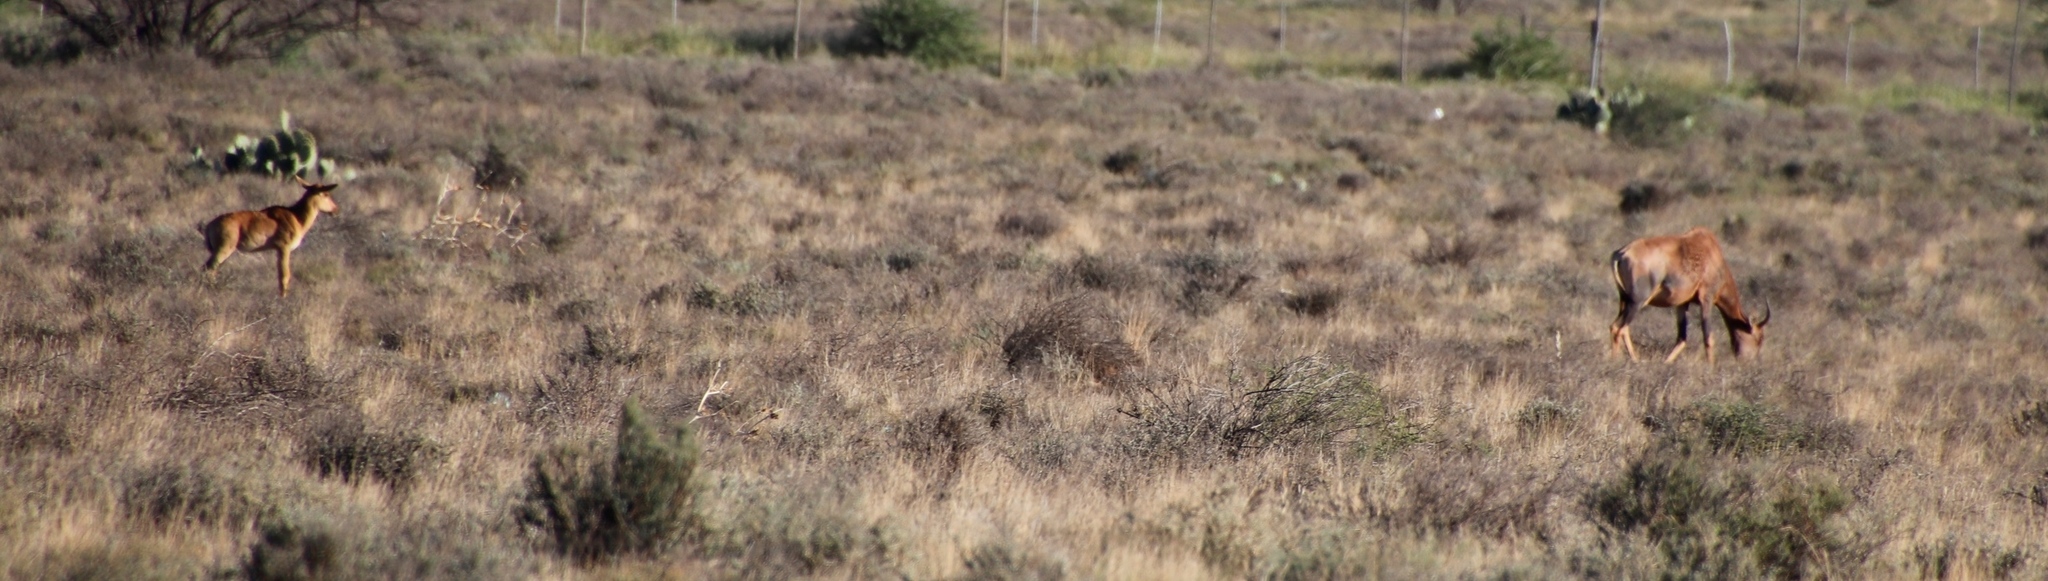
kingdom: Animalia
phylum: Chordata
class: Mammalia
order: Artiodactyla
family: Bovidae
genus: Damaliscus
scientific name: Damaliscus lunatus
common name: Common tsessebe
